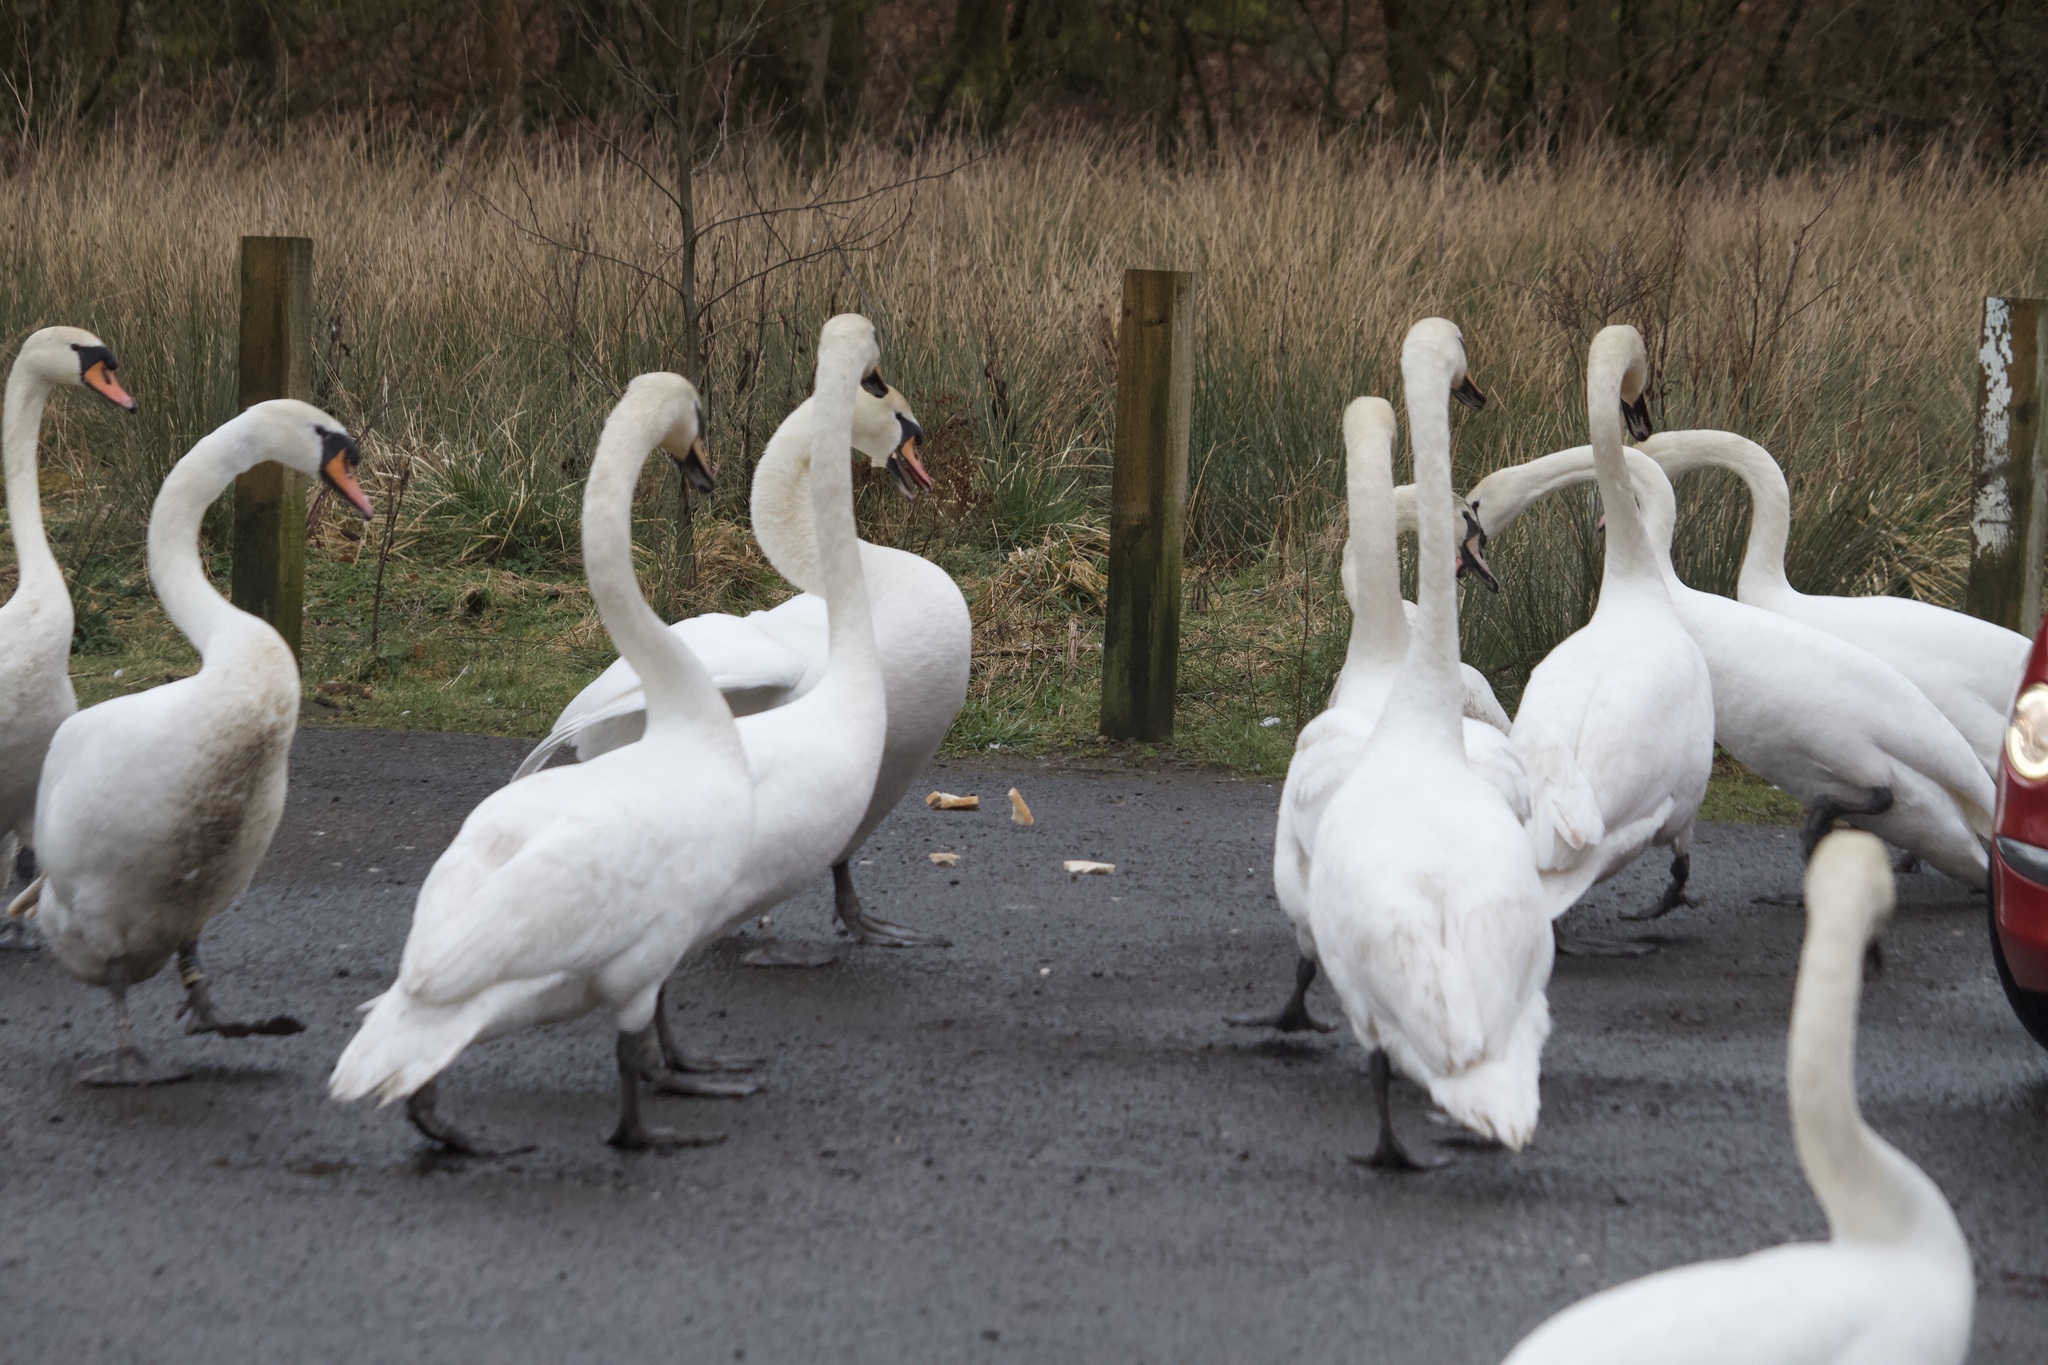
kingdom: Animalia
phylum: Chordata
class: Aves
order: Anseriformes
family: Anatidae
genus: Cygnus
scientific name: Cygnus olor
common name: Mute swan
